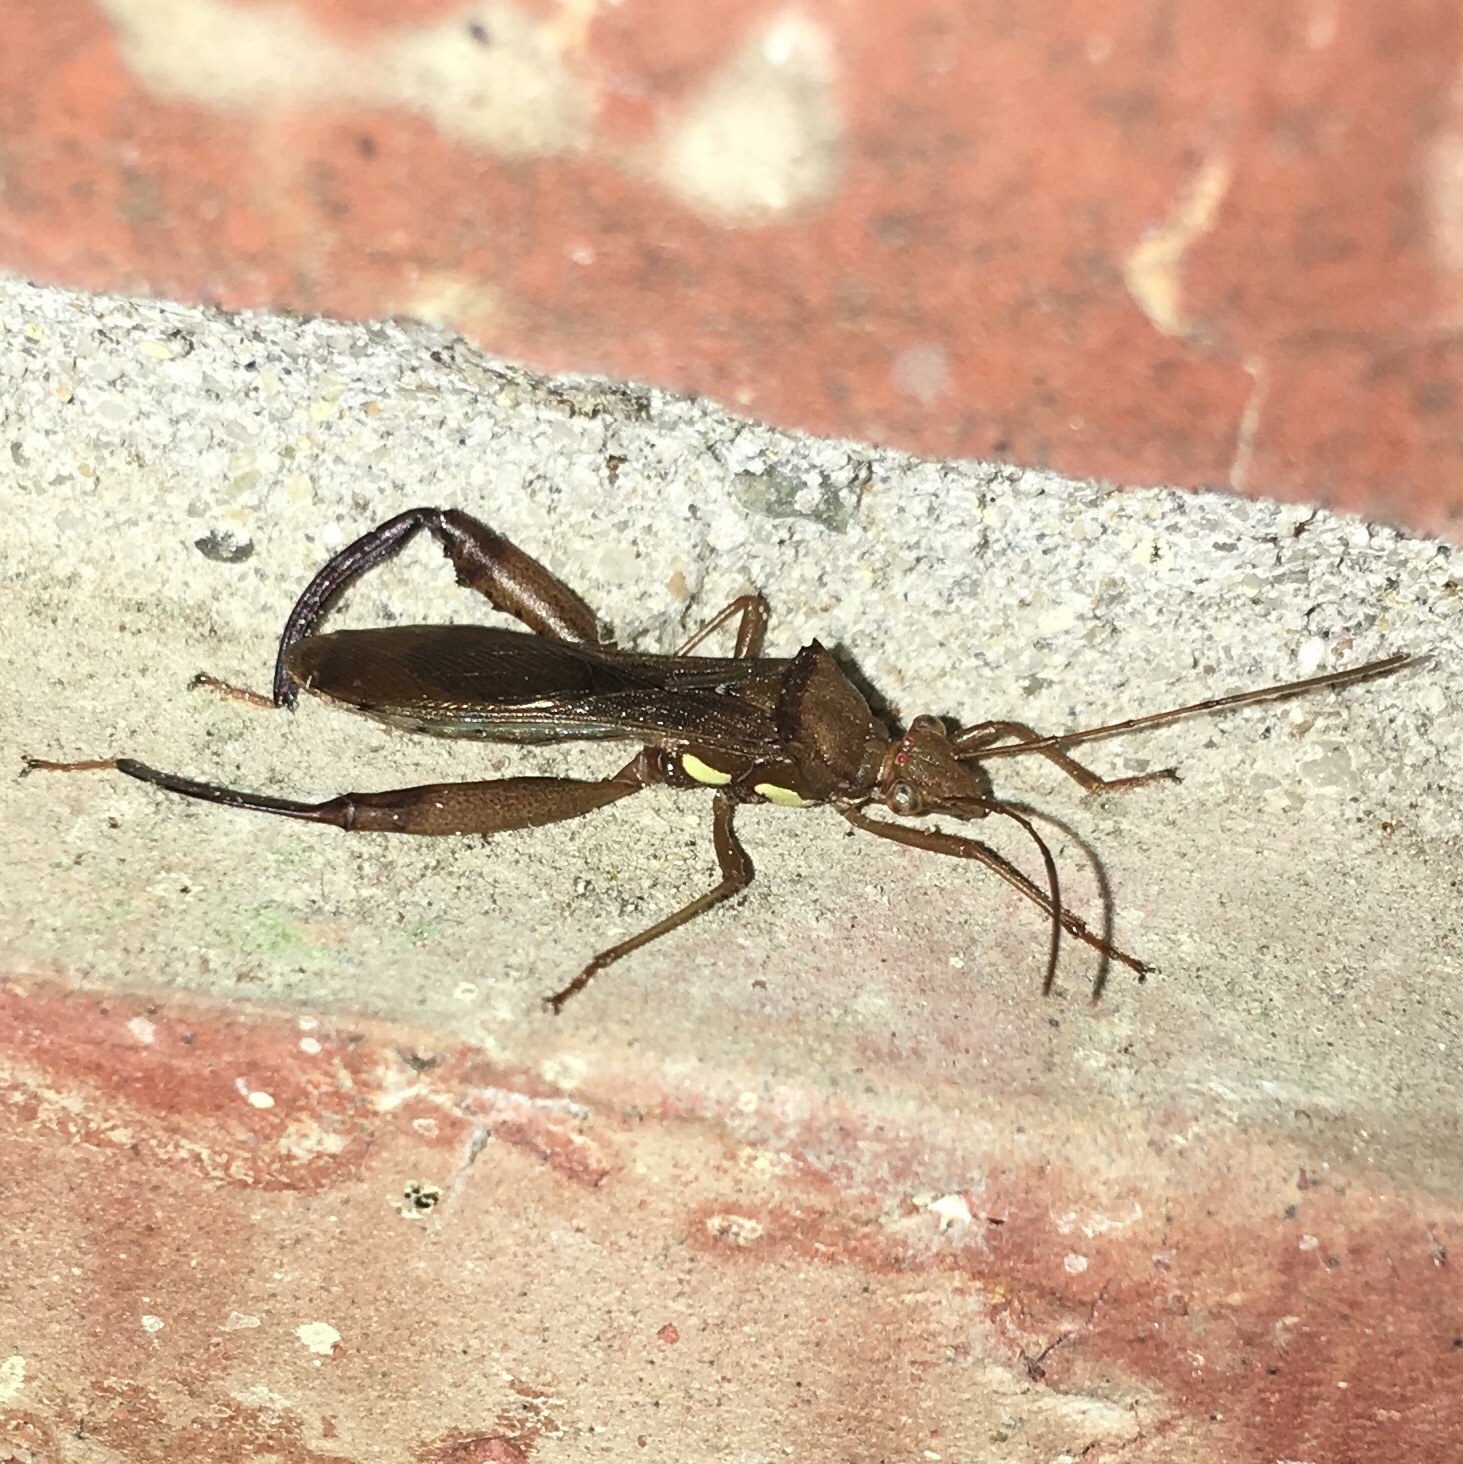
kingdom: Animalia
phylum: Arthropoda
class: Insecta
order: Hemiptera
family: Alydidae
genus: Hyalymenus
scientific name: Hyalymenus tarsatus
